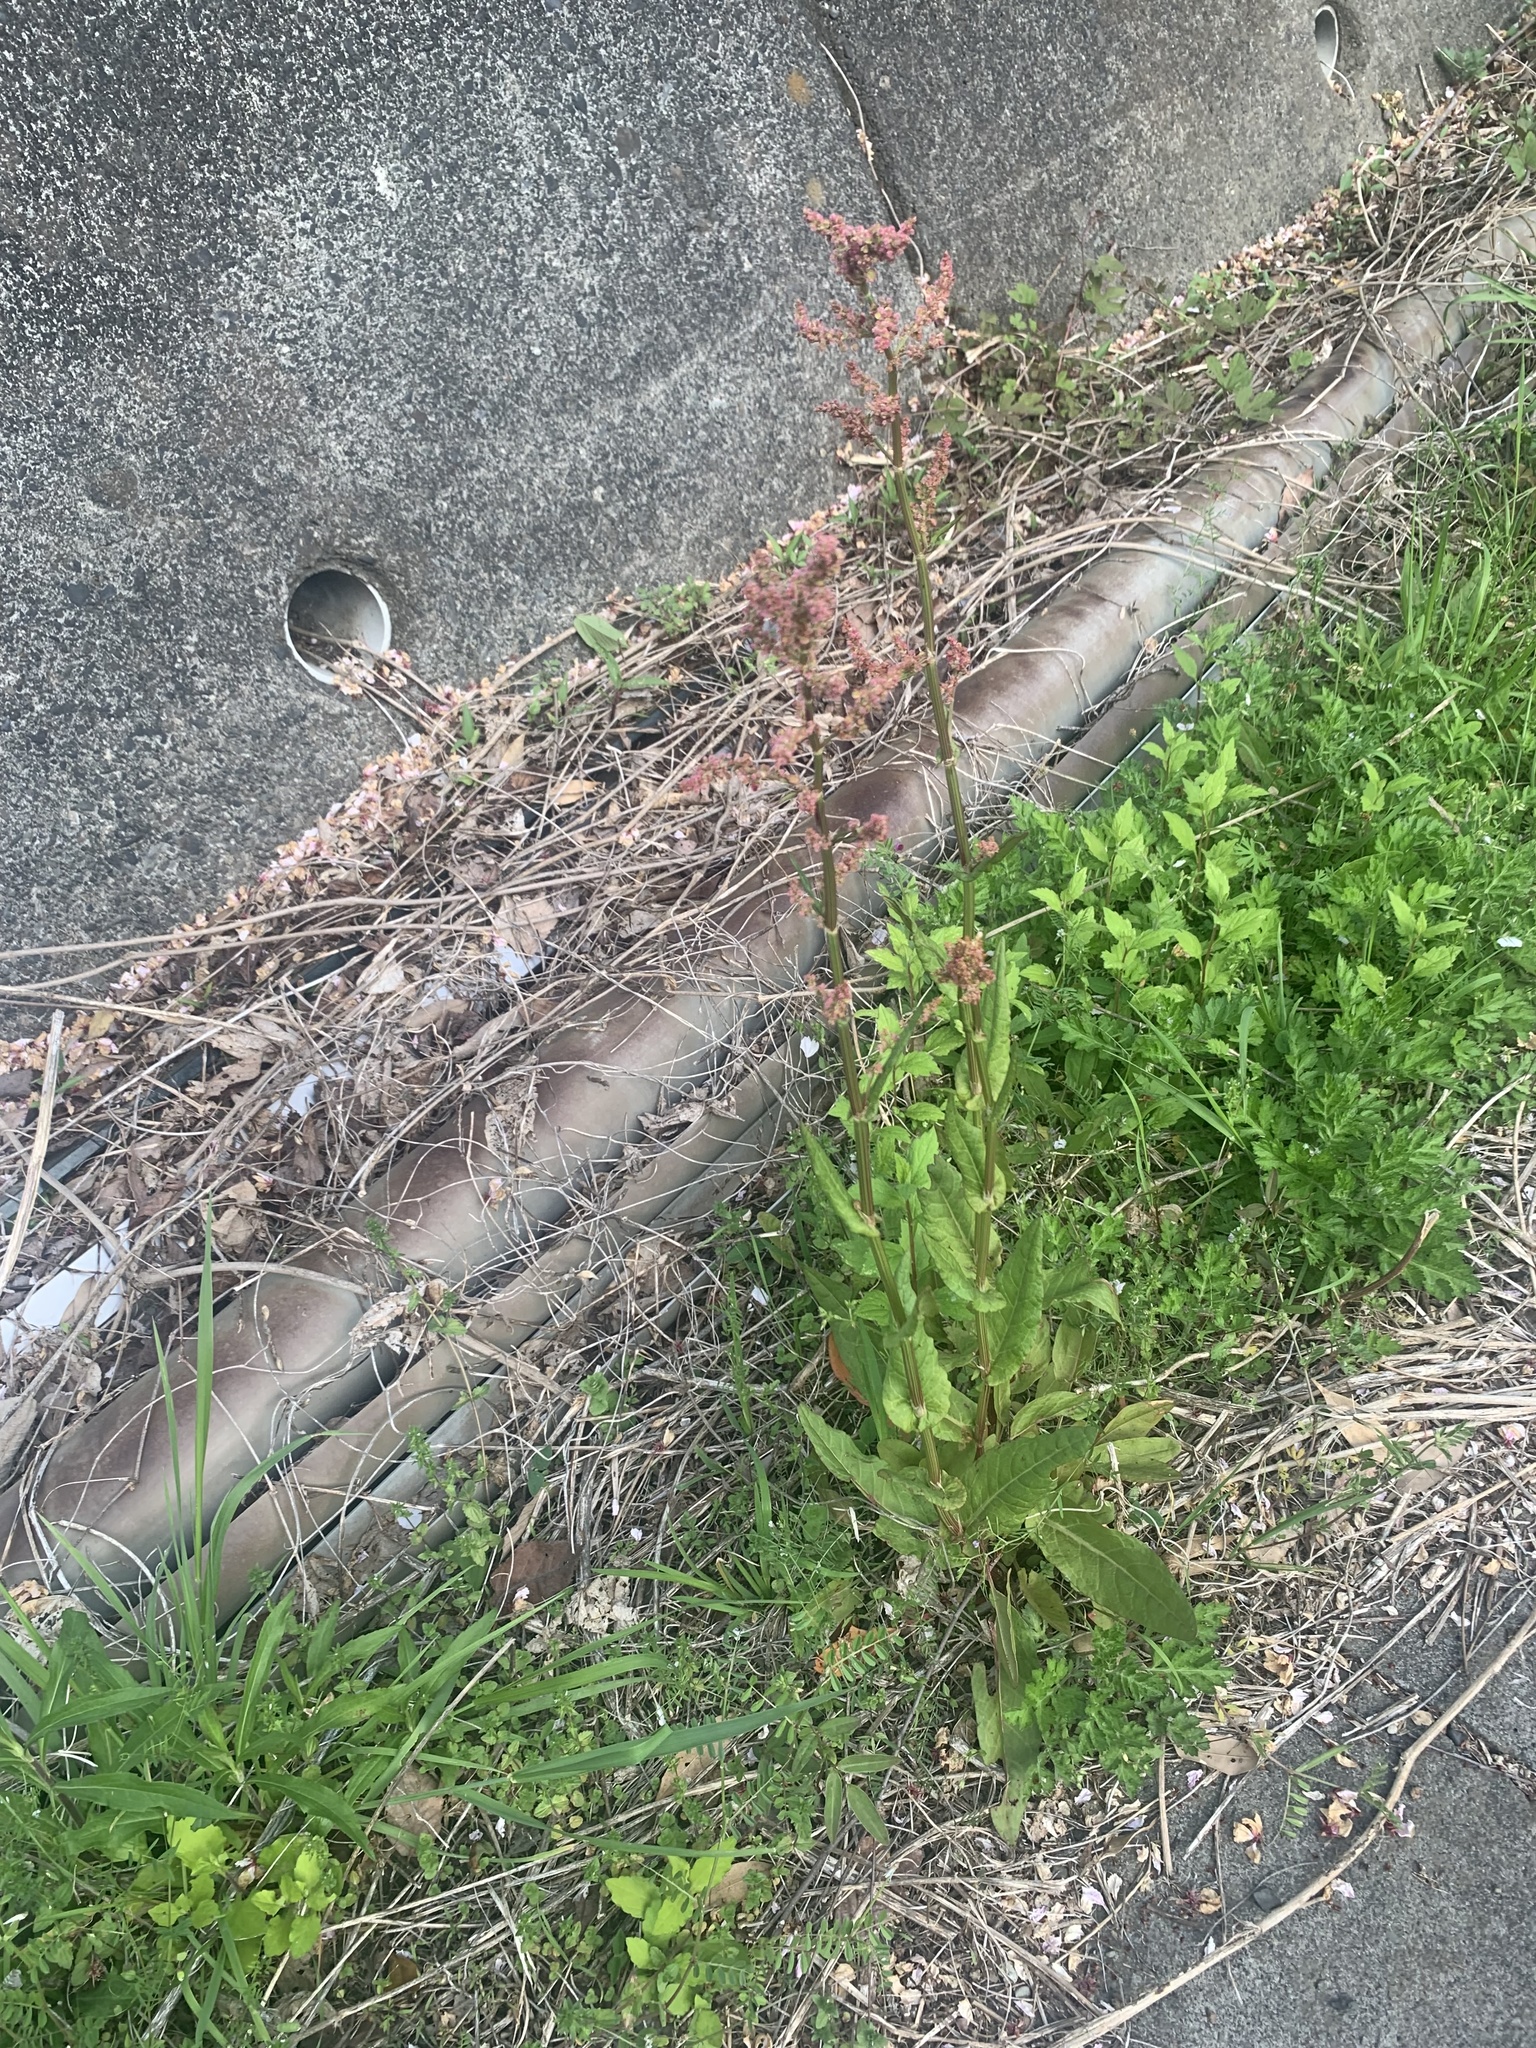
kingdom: Plantae
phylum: Tracheophyta
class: Magnoliopsida
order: Caryophyllales
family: Polygonaceae
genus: Rumex
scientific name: Rumex acetosa
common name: Garden sorrel
